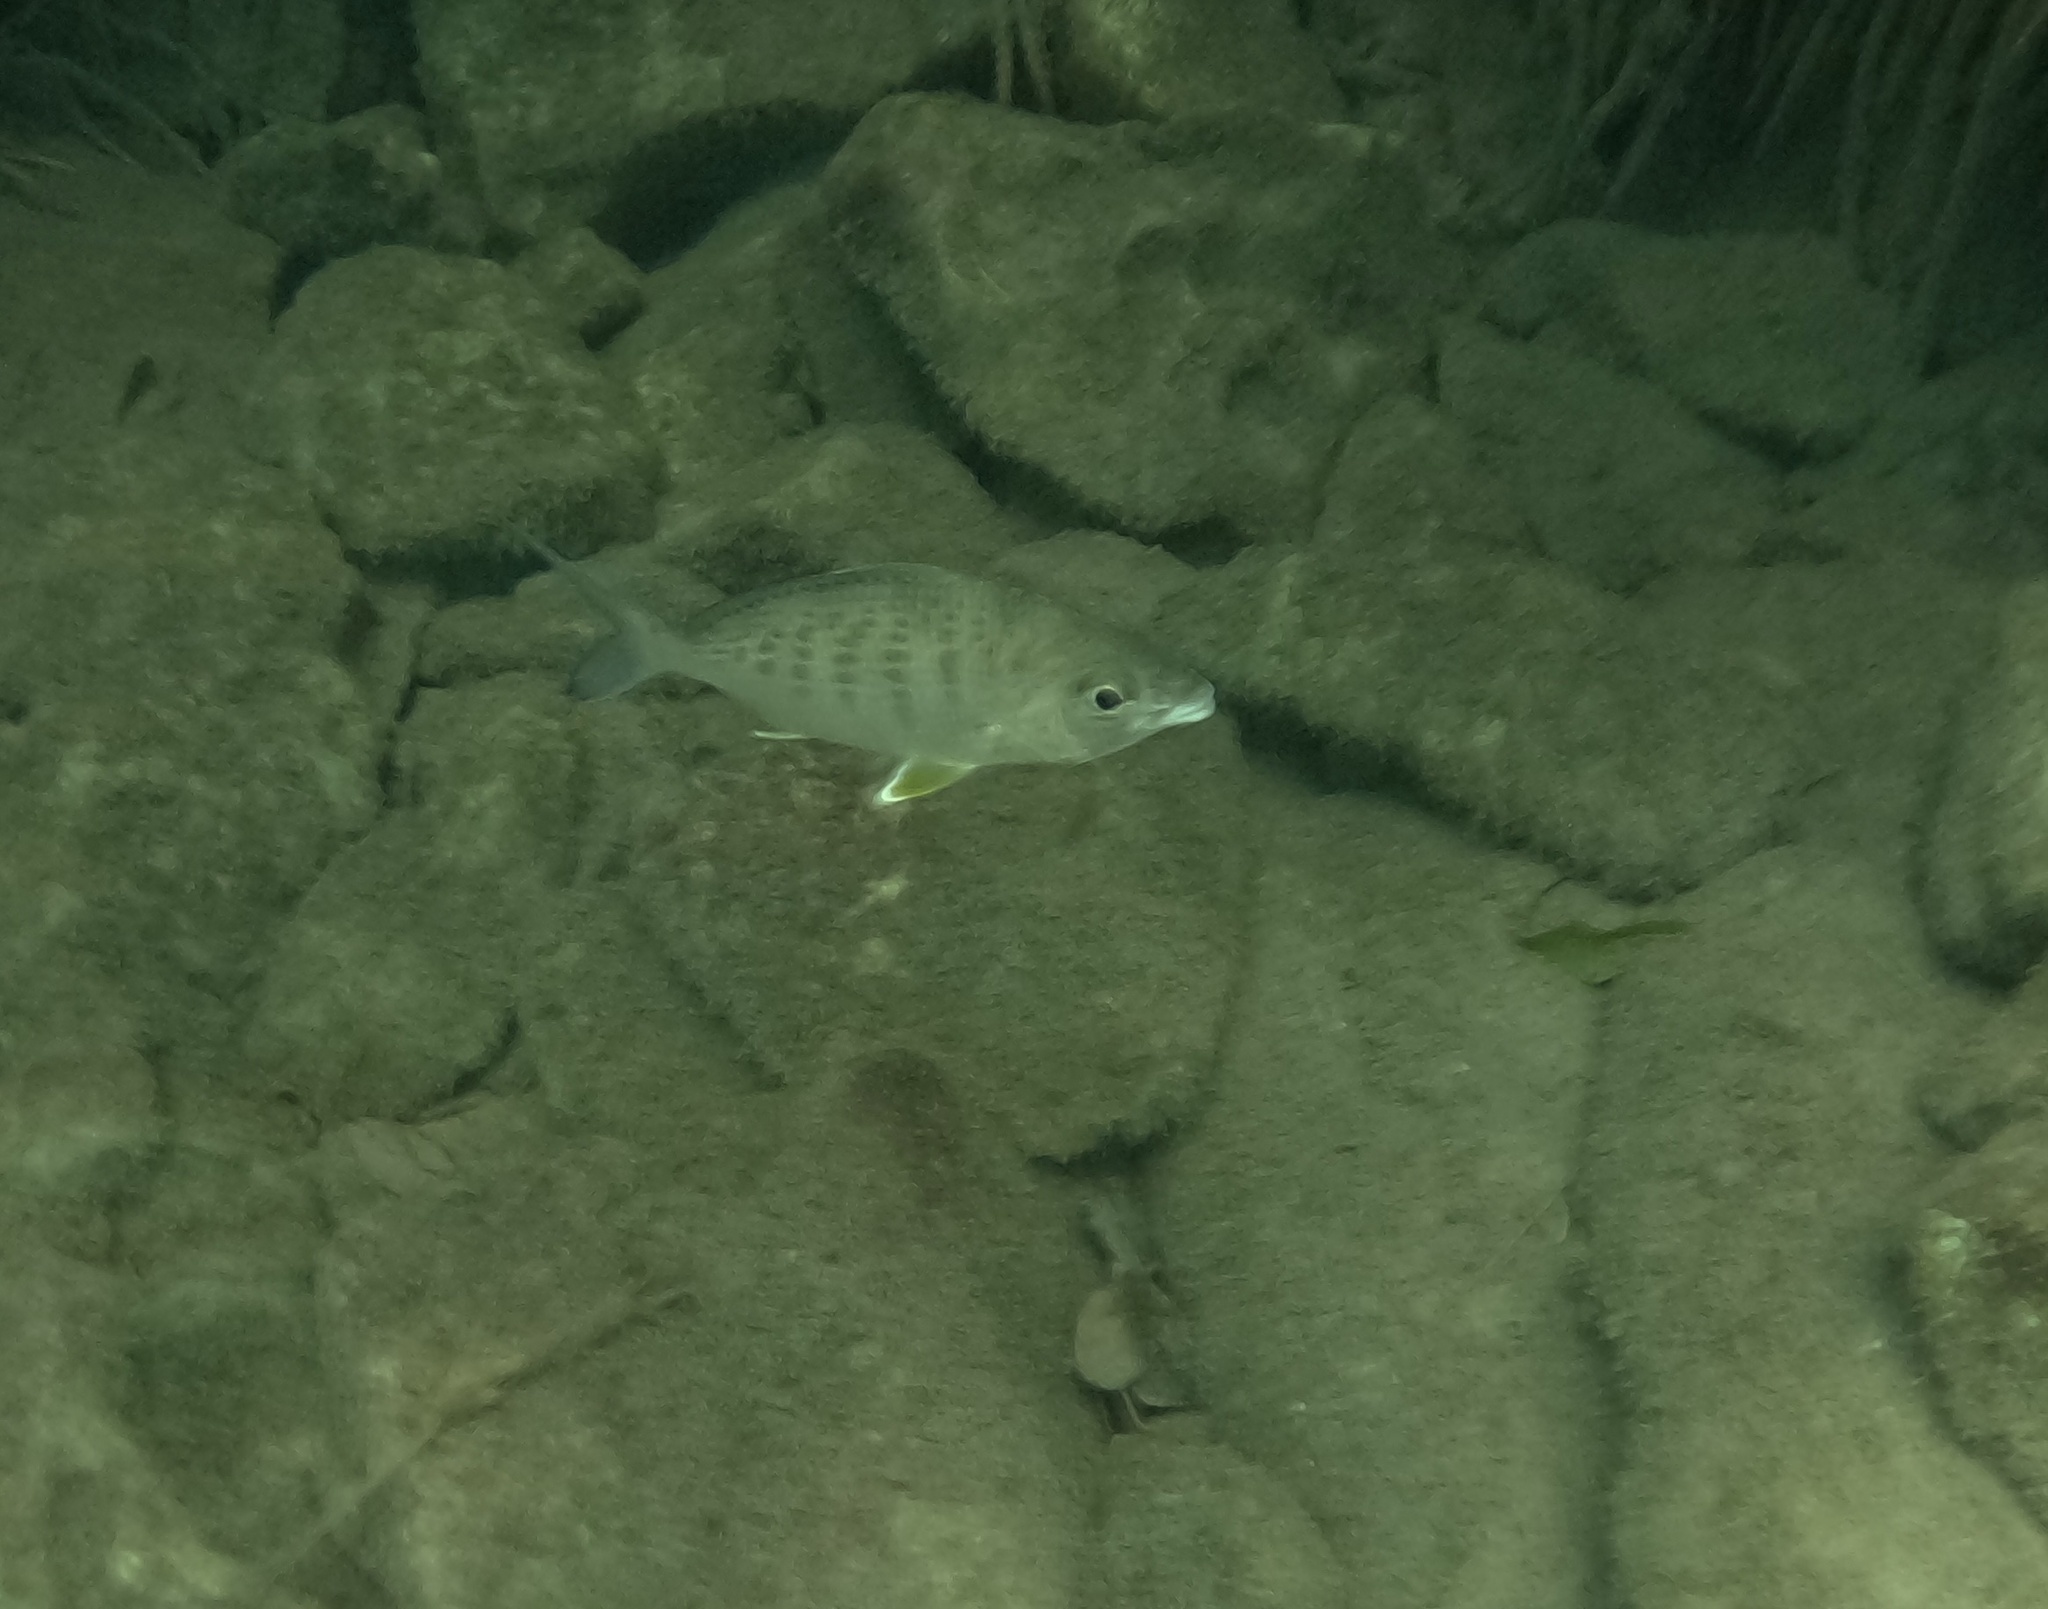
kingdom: Animalia
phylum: Chordata
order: Perciformes
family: Gerreidae
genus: Gerres
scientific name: Gerres cinereus
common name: Hedow
